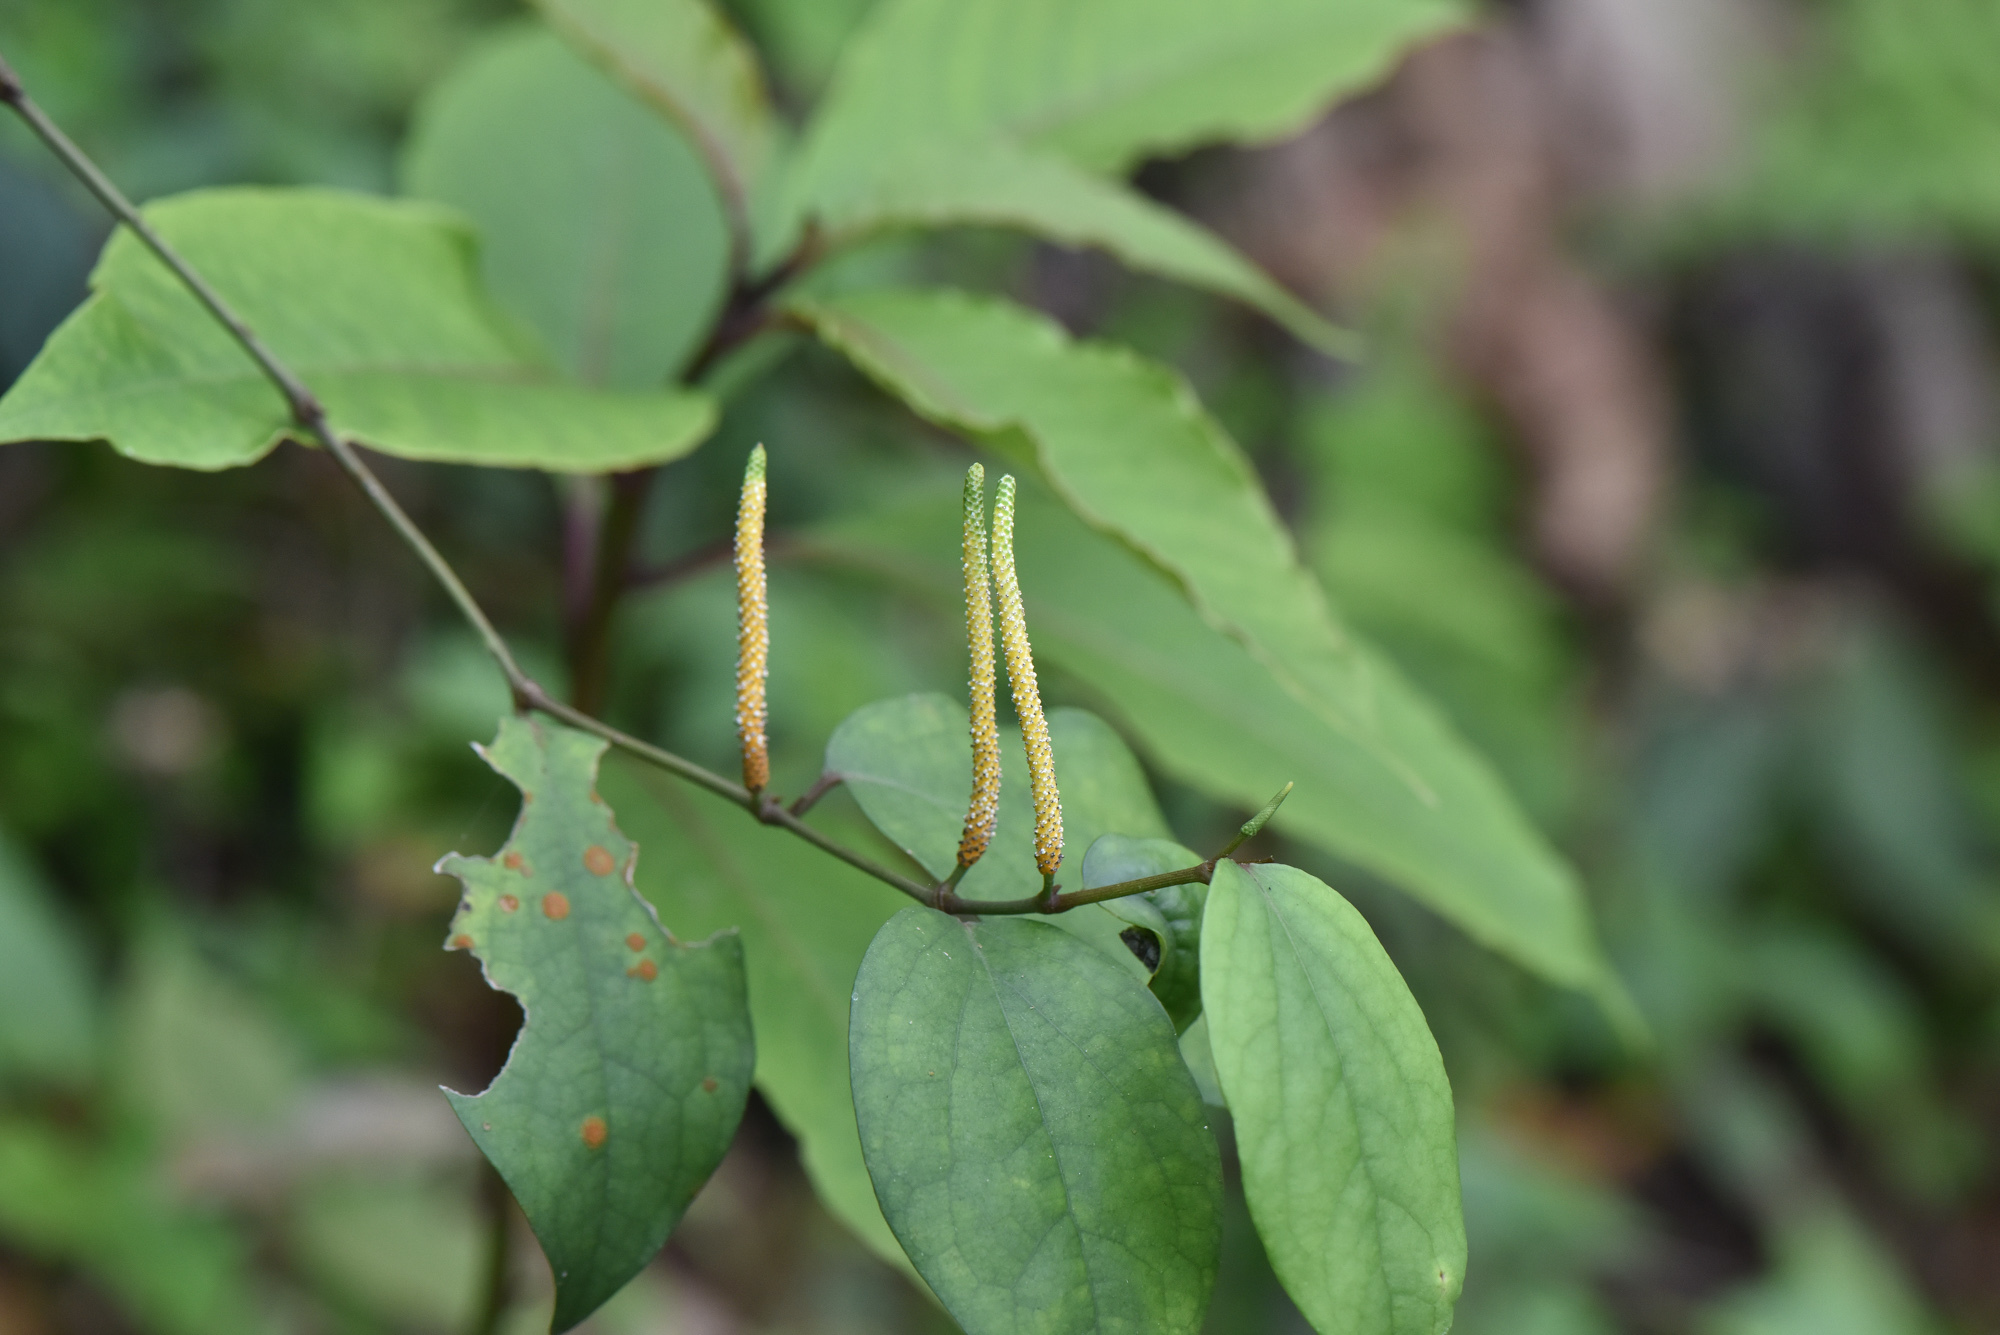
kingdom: Plantae
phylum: Tracheophyta
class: Magnoliopsida
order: Piperales
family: Piperaceae
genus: Piper
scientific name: Piper kadsura
